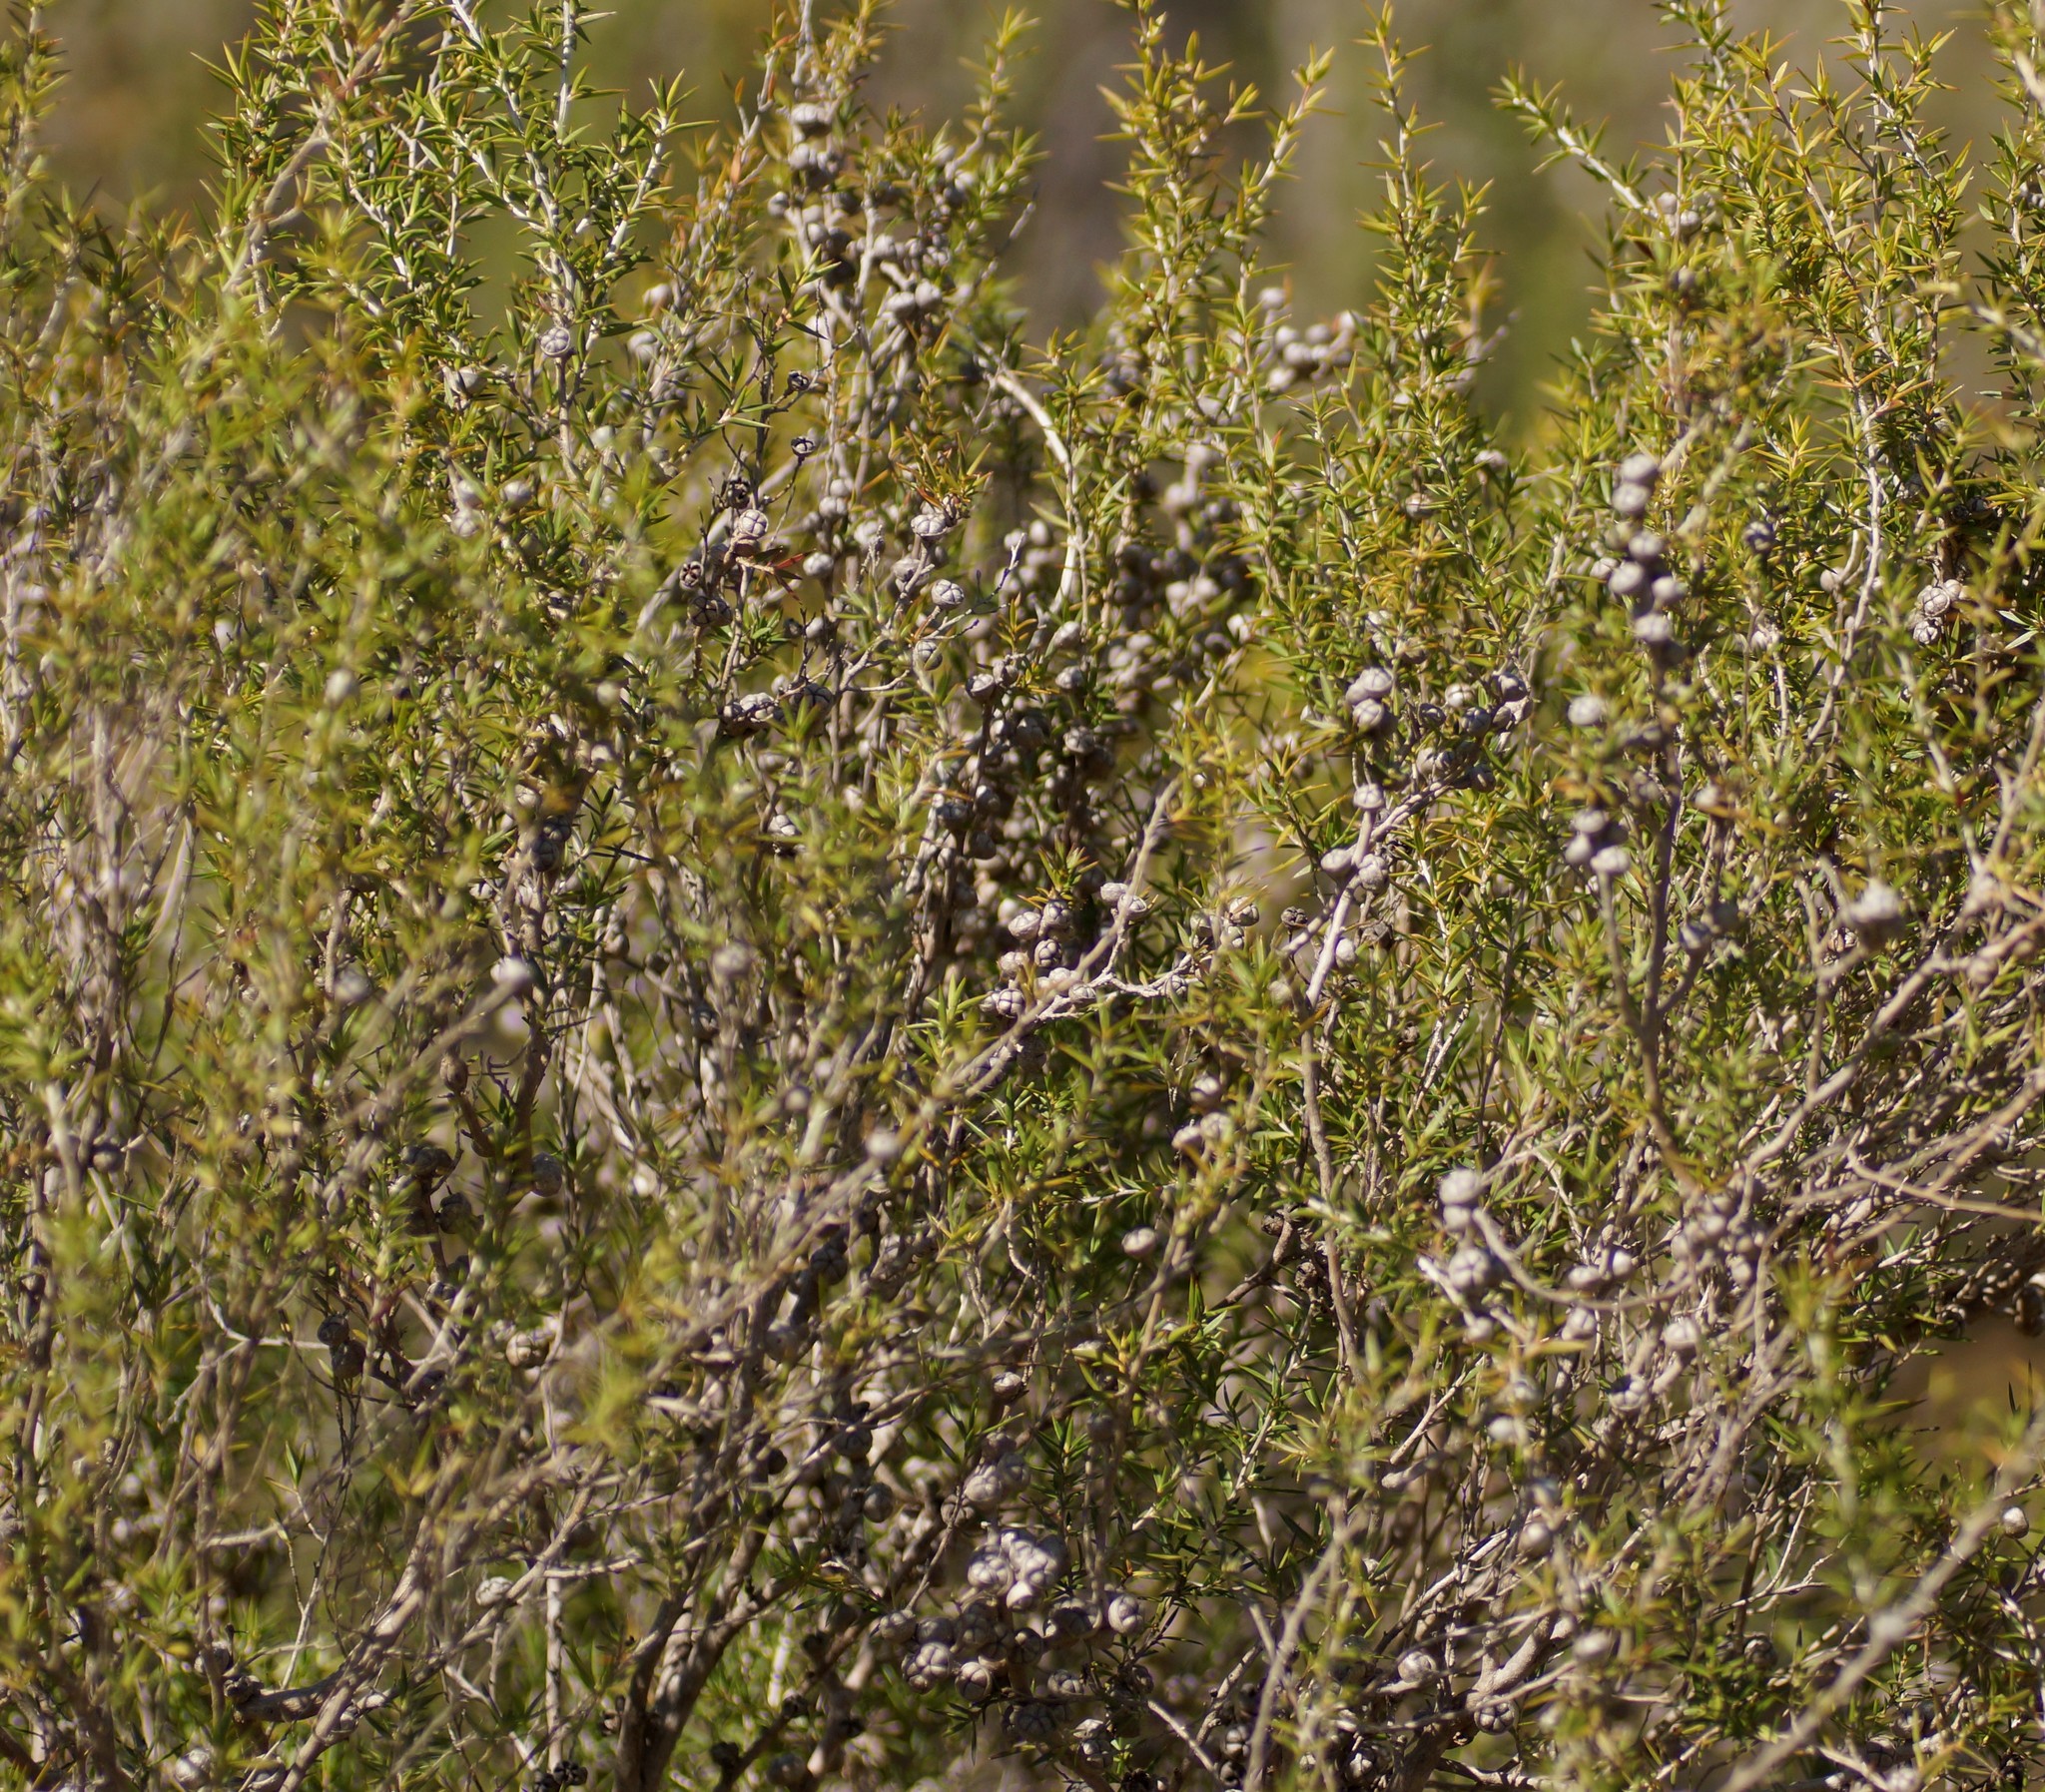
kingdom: Plantae
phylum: Tracheophyta
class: Magnoliopsida
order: Myrtales
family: Myrtaceae
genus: Leptospermum
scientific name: Leptospermum continentale
